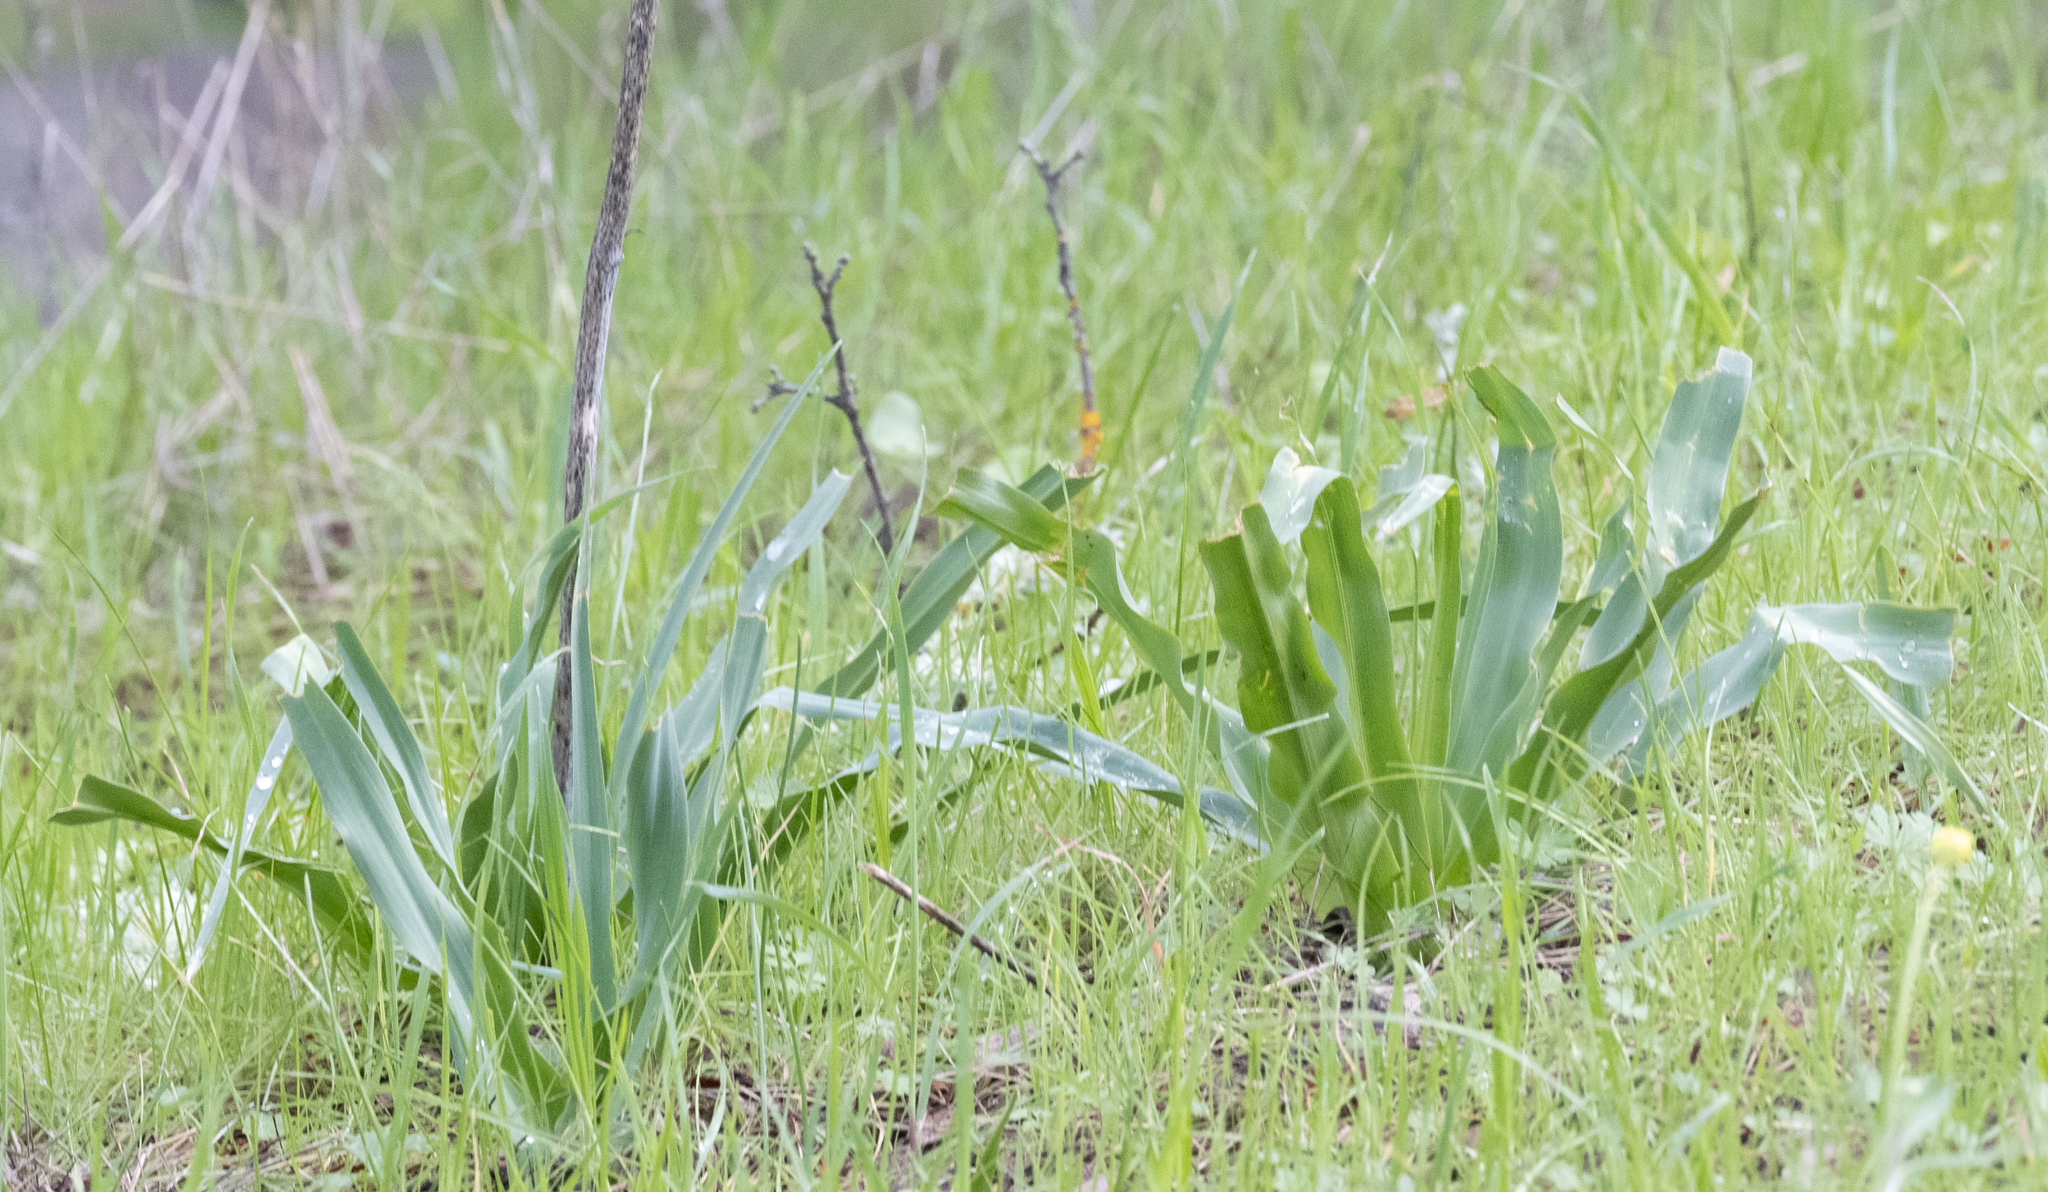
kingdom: Plantae
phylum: Tracheophyta
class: Liliopsida
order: Asparagales
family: Asparagaceae
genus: Chlorogalum
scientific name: Chlorogalum pomeridianum
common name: Amole
